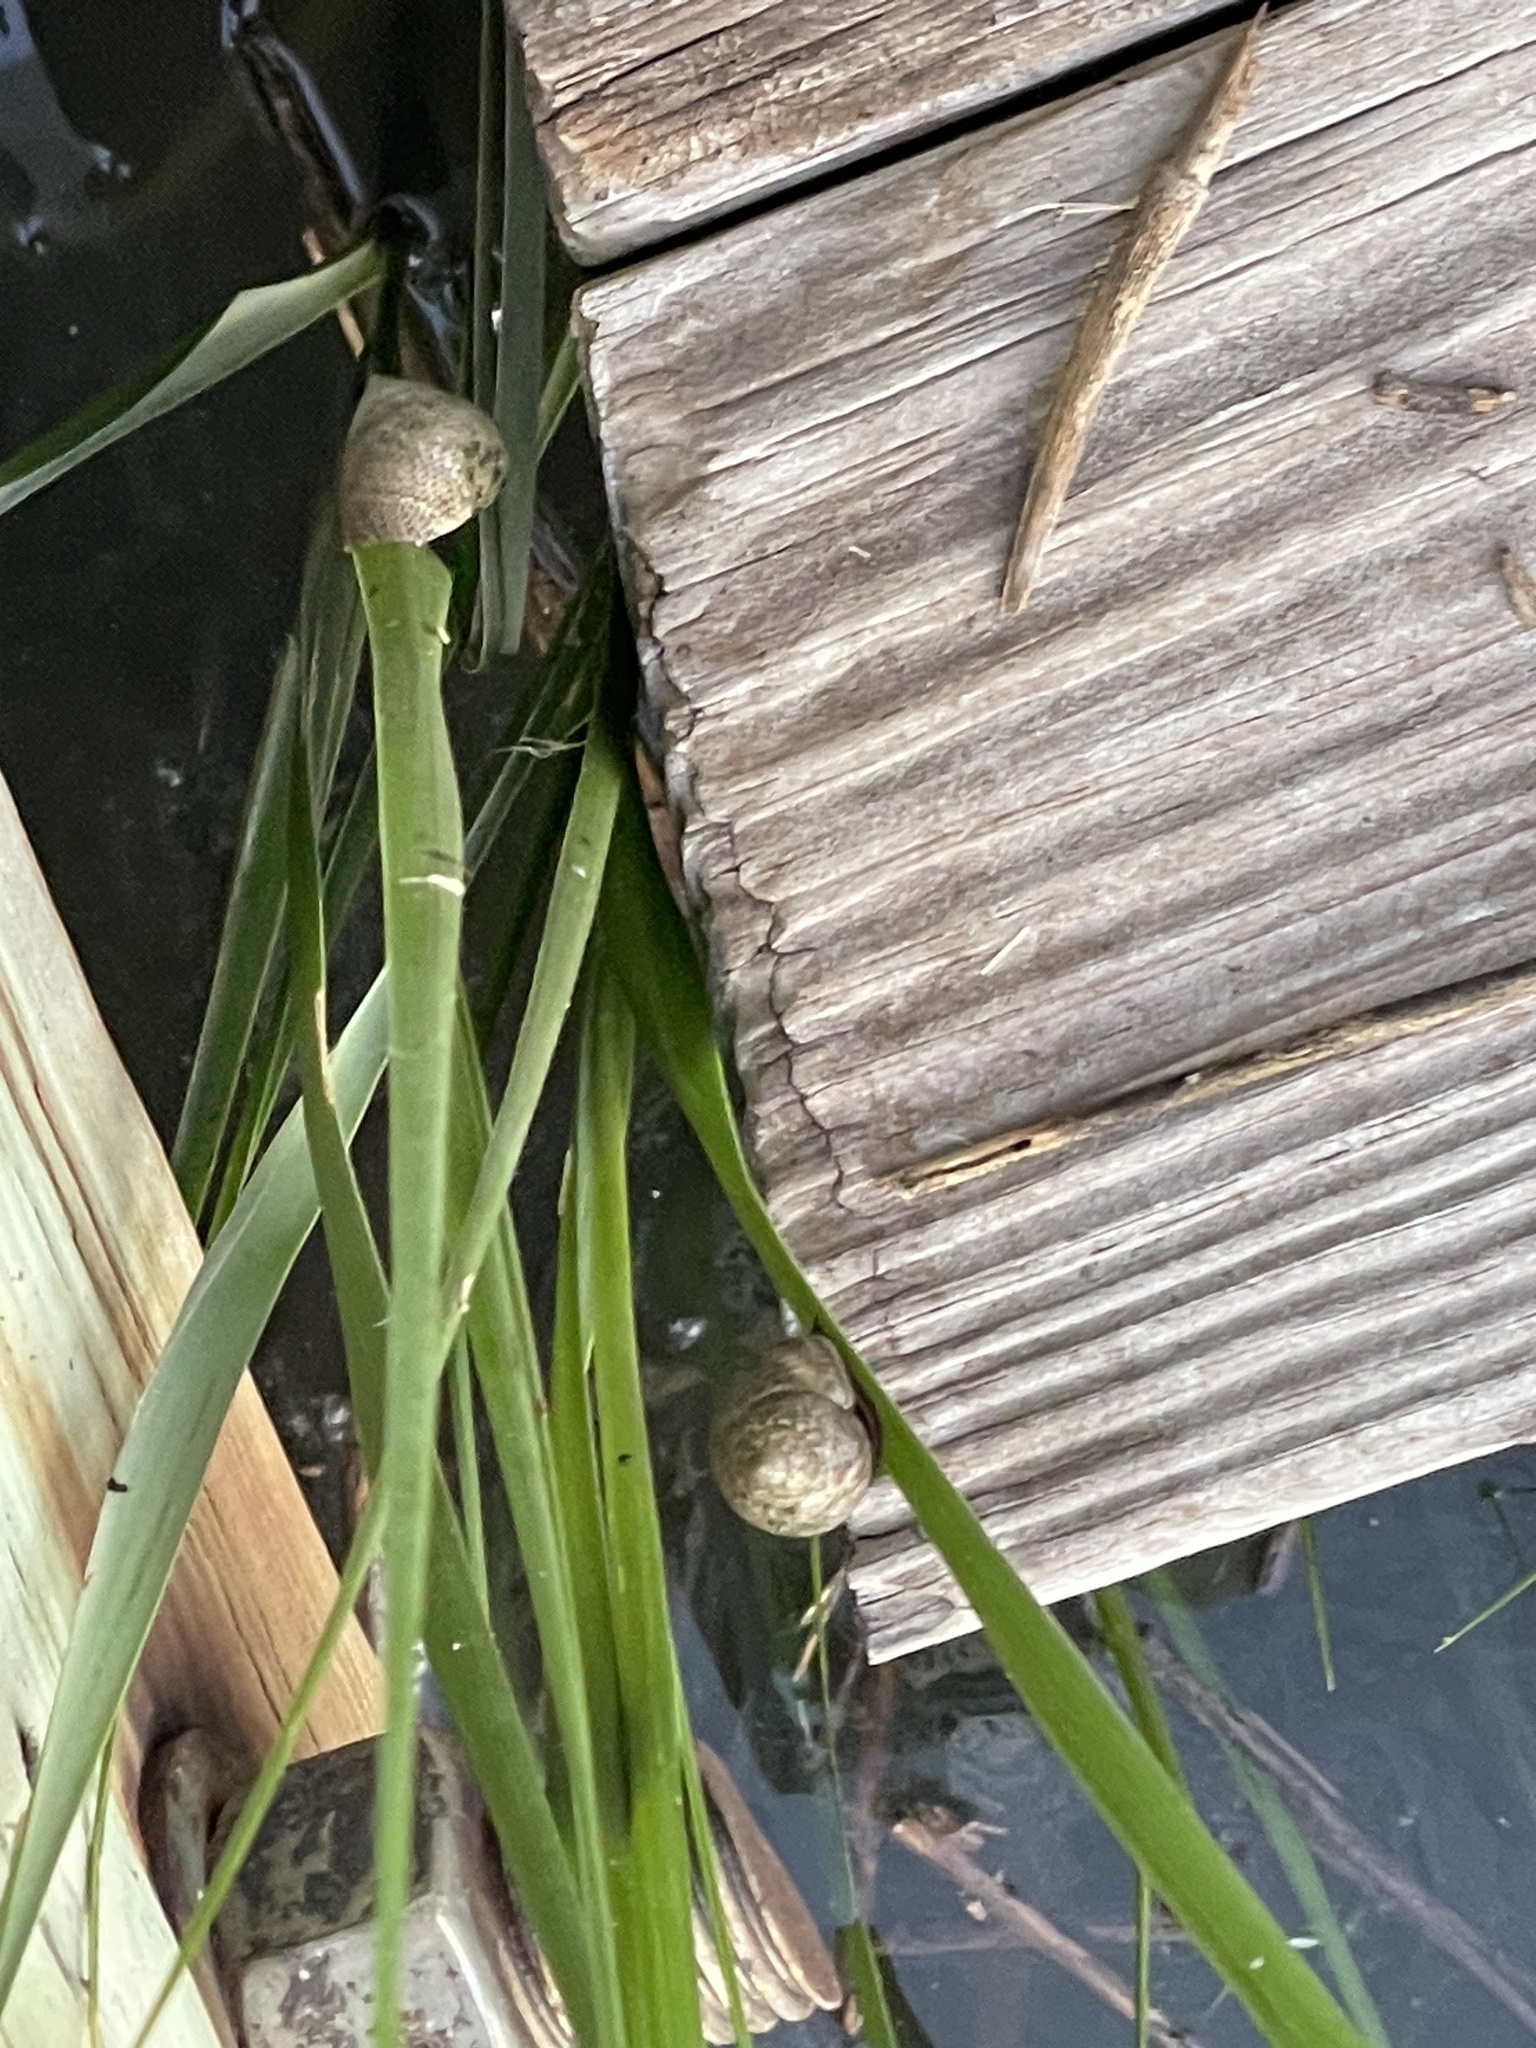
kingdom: Animalia
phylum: Mollusca
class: Gastropoda
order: Littorinimorpha
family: Littorinidae
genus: Littoraria
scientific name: Littoraria irrorata
